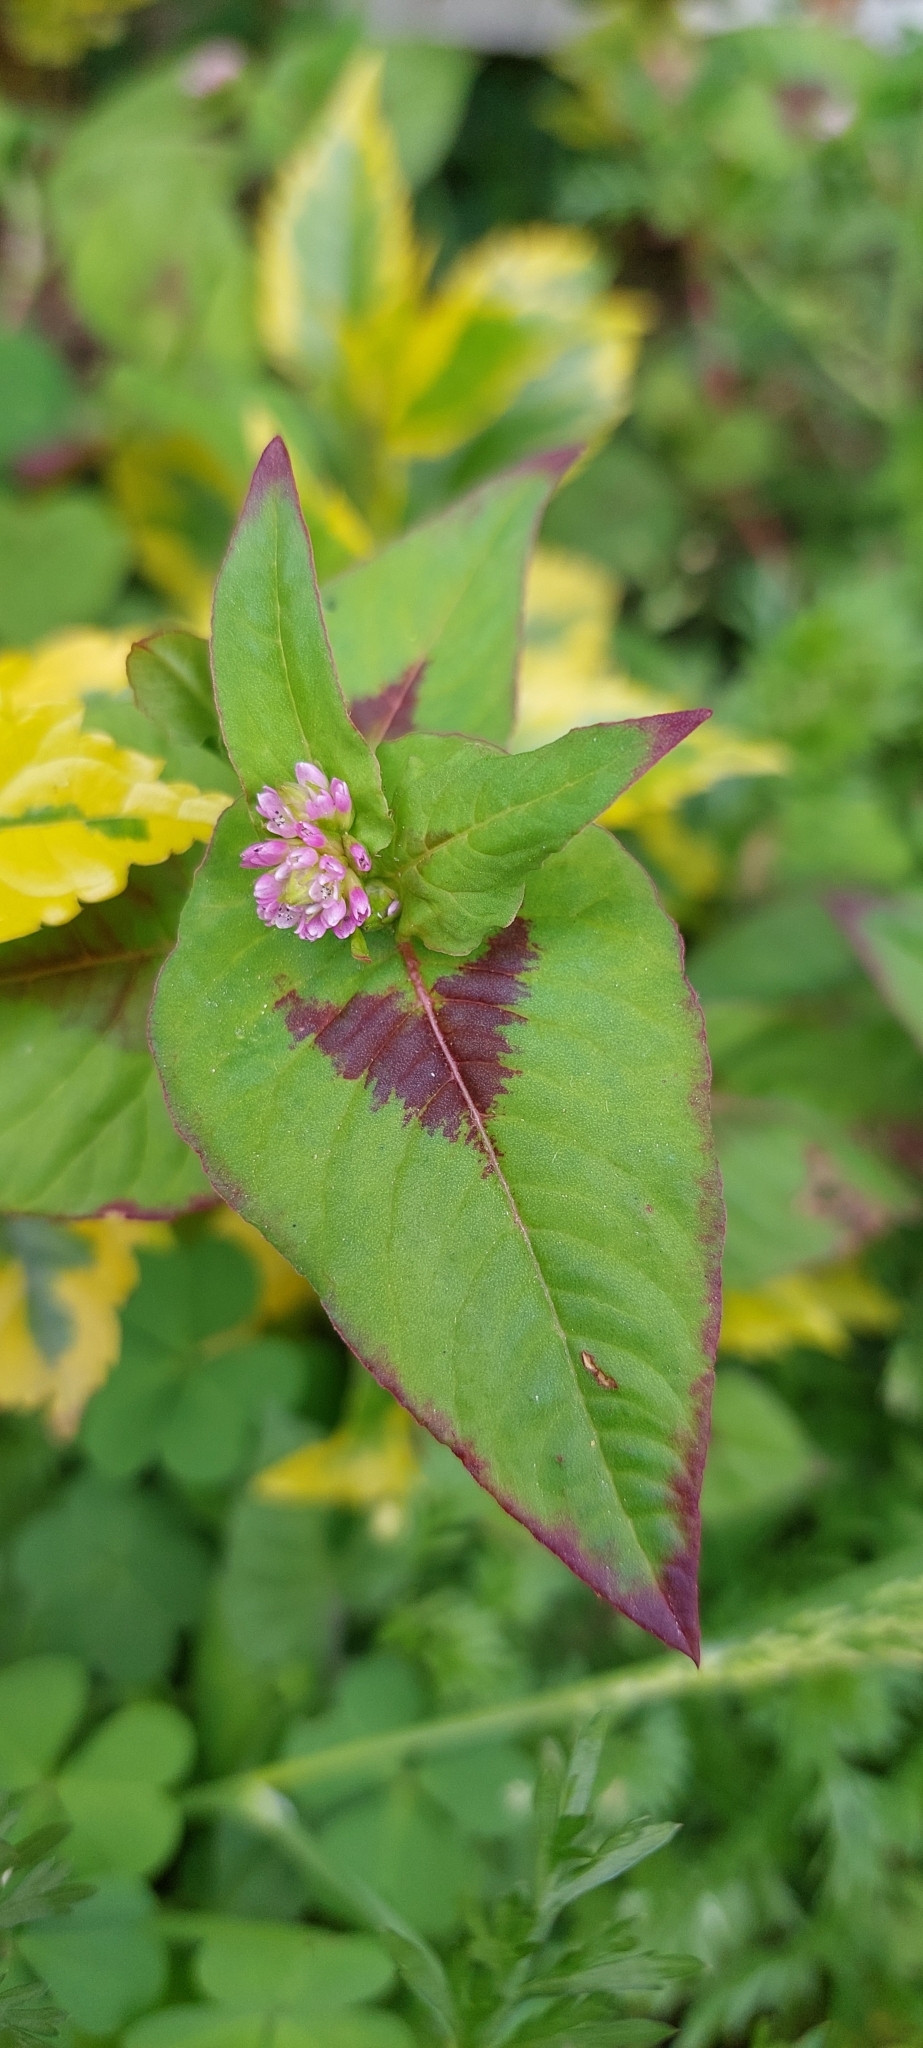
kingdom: Plantae
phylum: Tracheophyta
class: Magnoliopsida
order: Caryophyllales
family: Polygonaceae
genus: Persicaria
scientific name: Persicaria nepalensis
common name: Nepal persicaria
